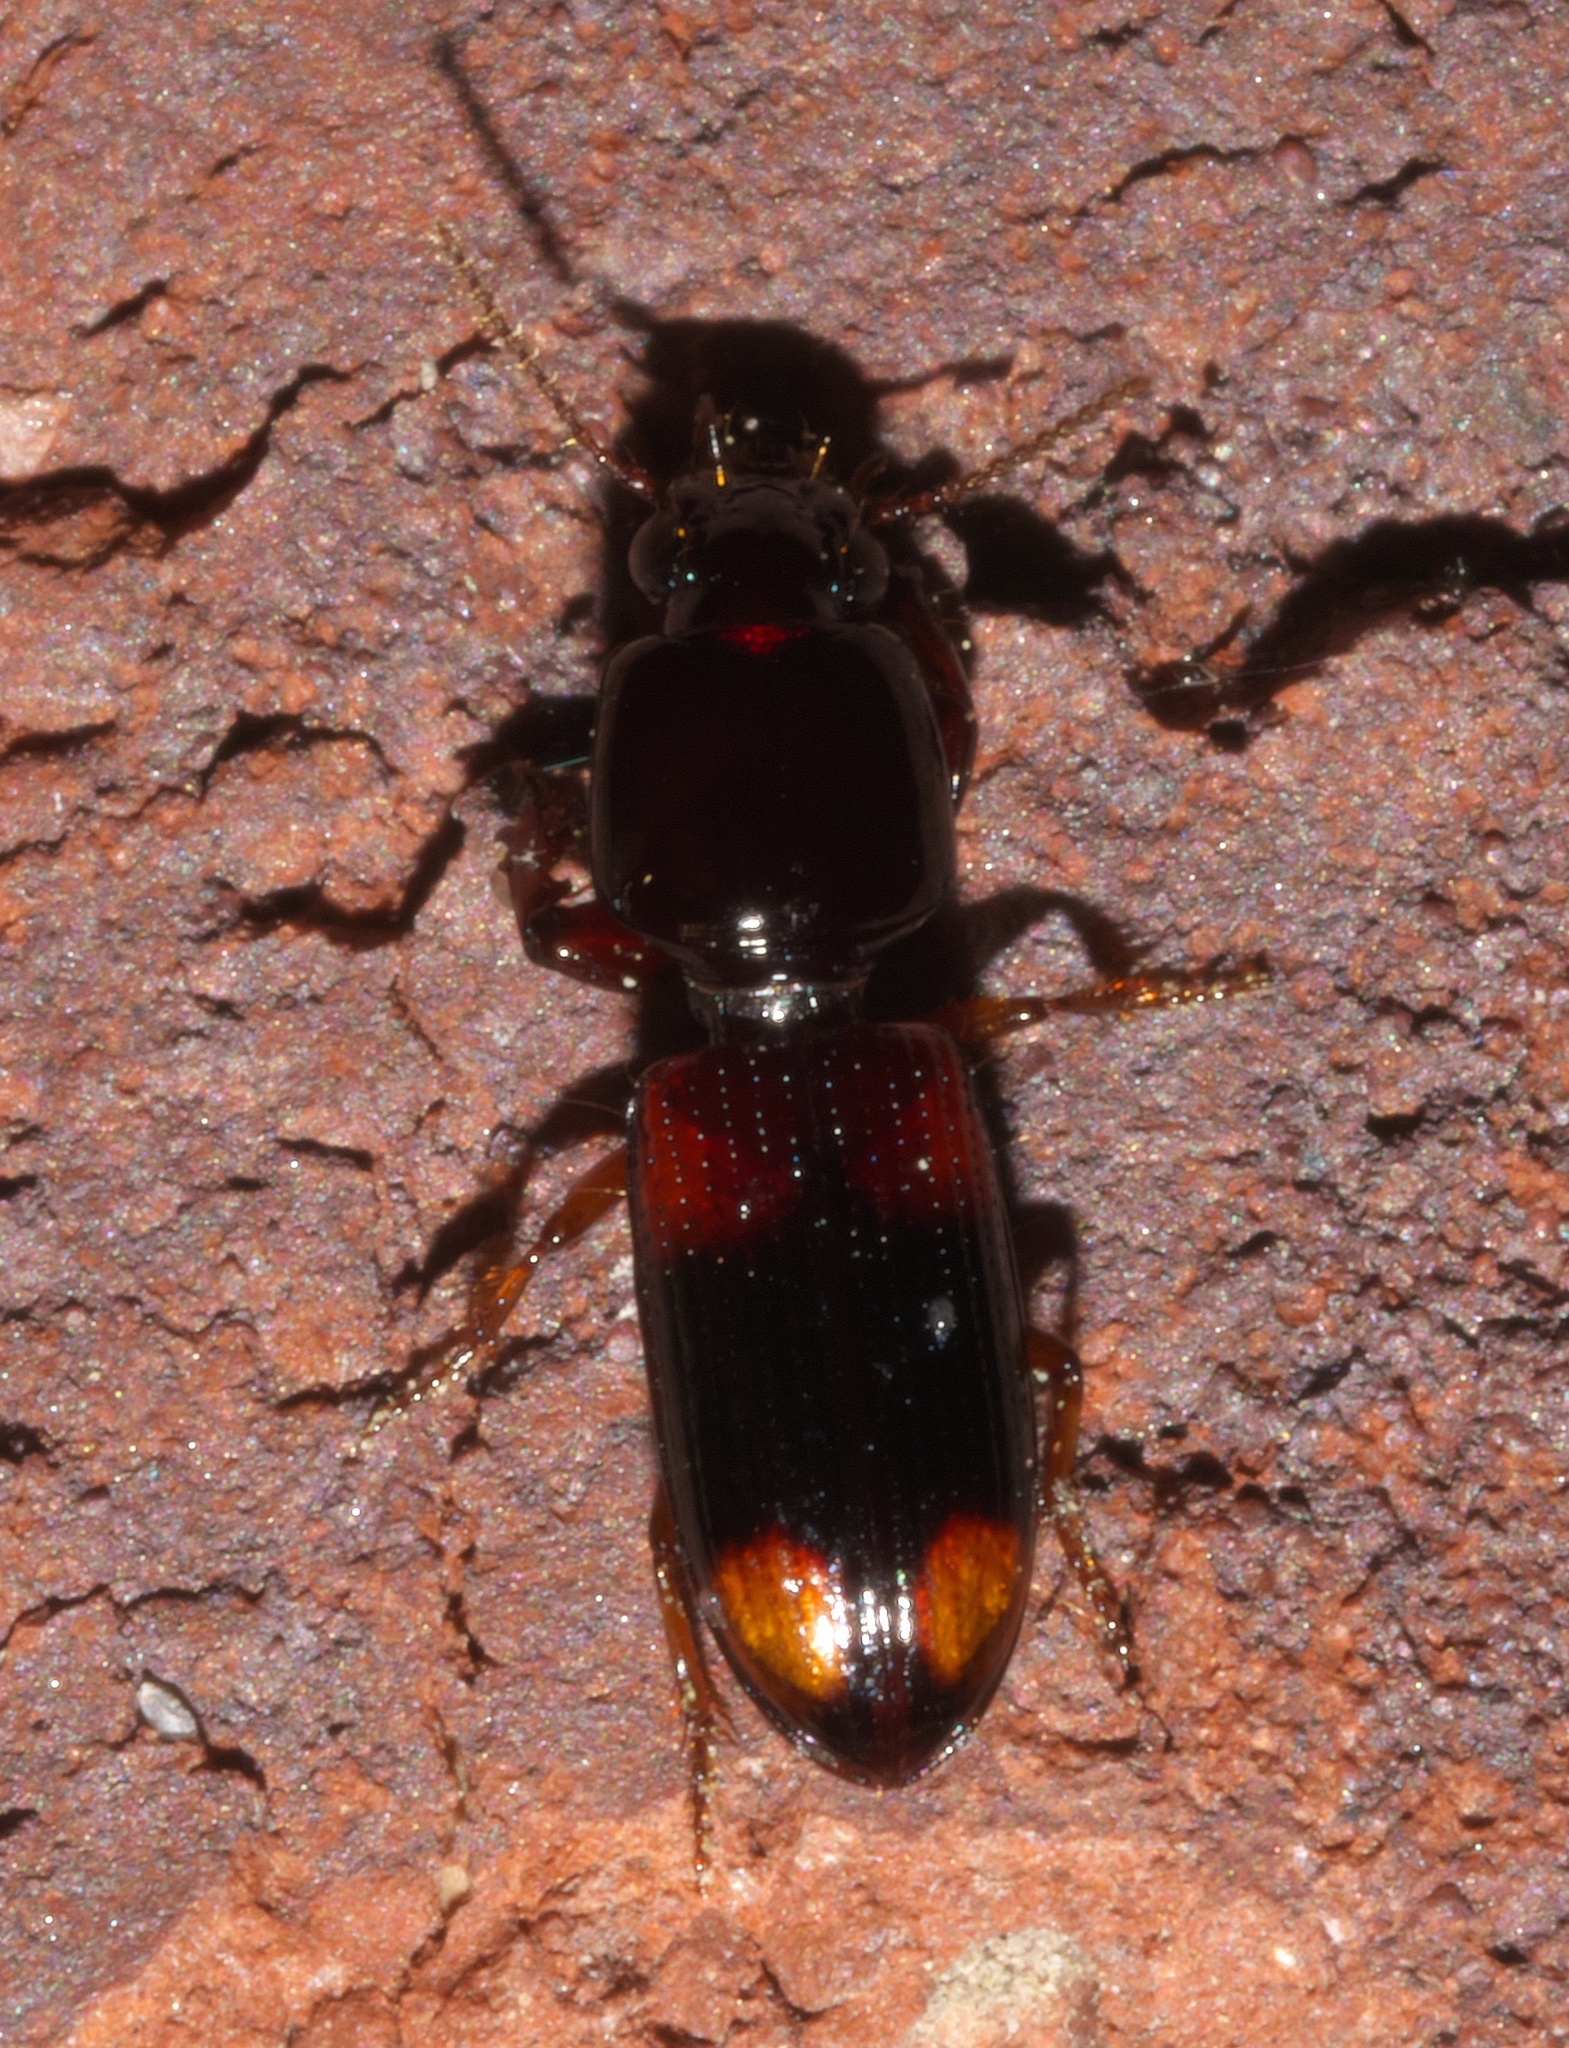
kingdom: Animalia
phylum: Arthropoda
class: Insecta
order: Coleoptera
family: Carabidae
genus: Clivina
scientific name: Clivina bipustulata
